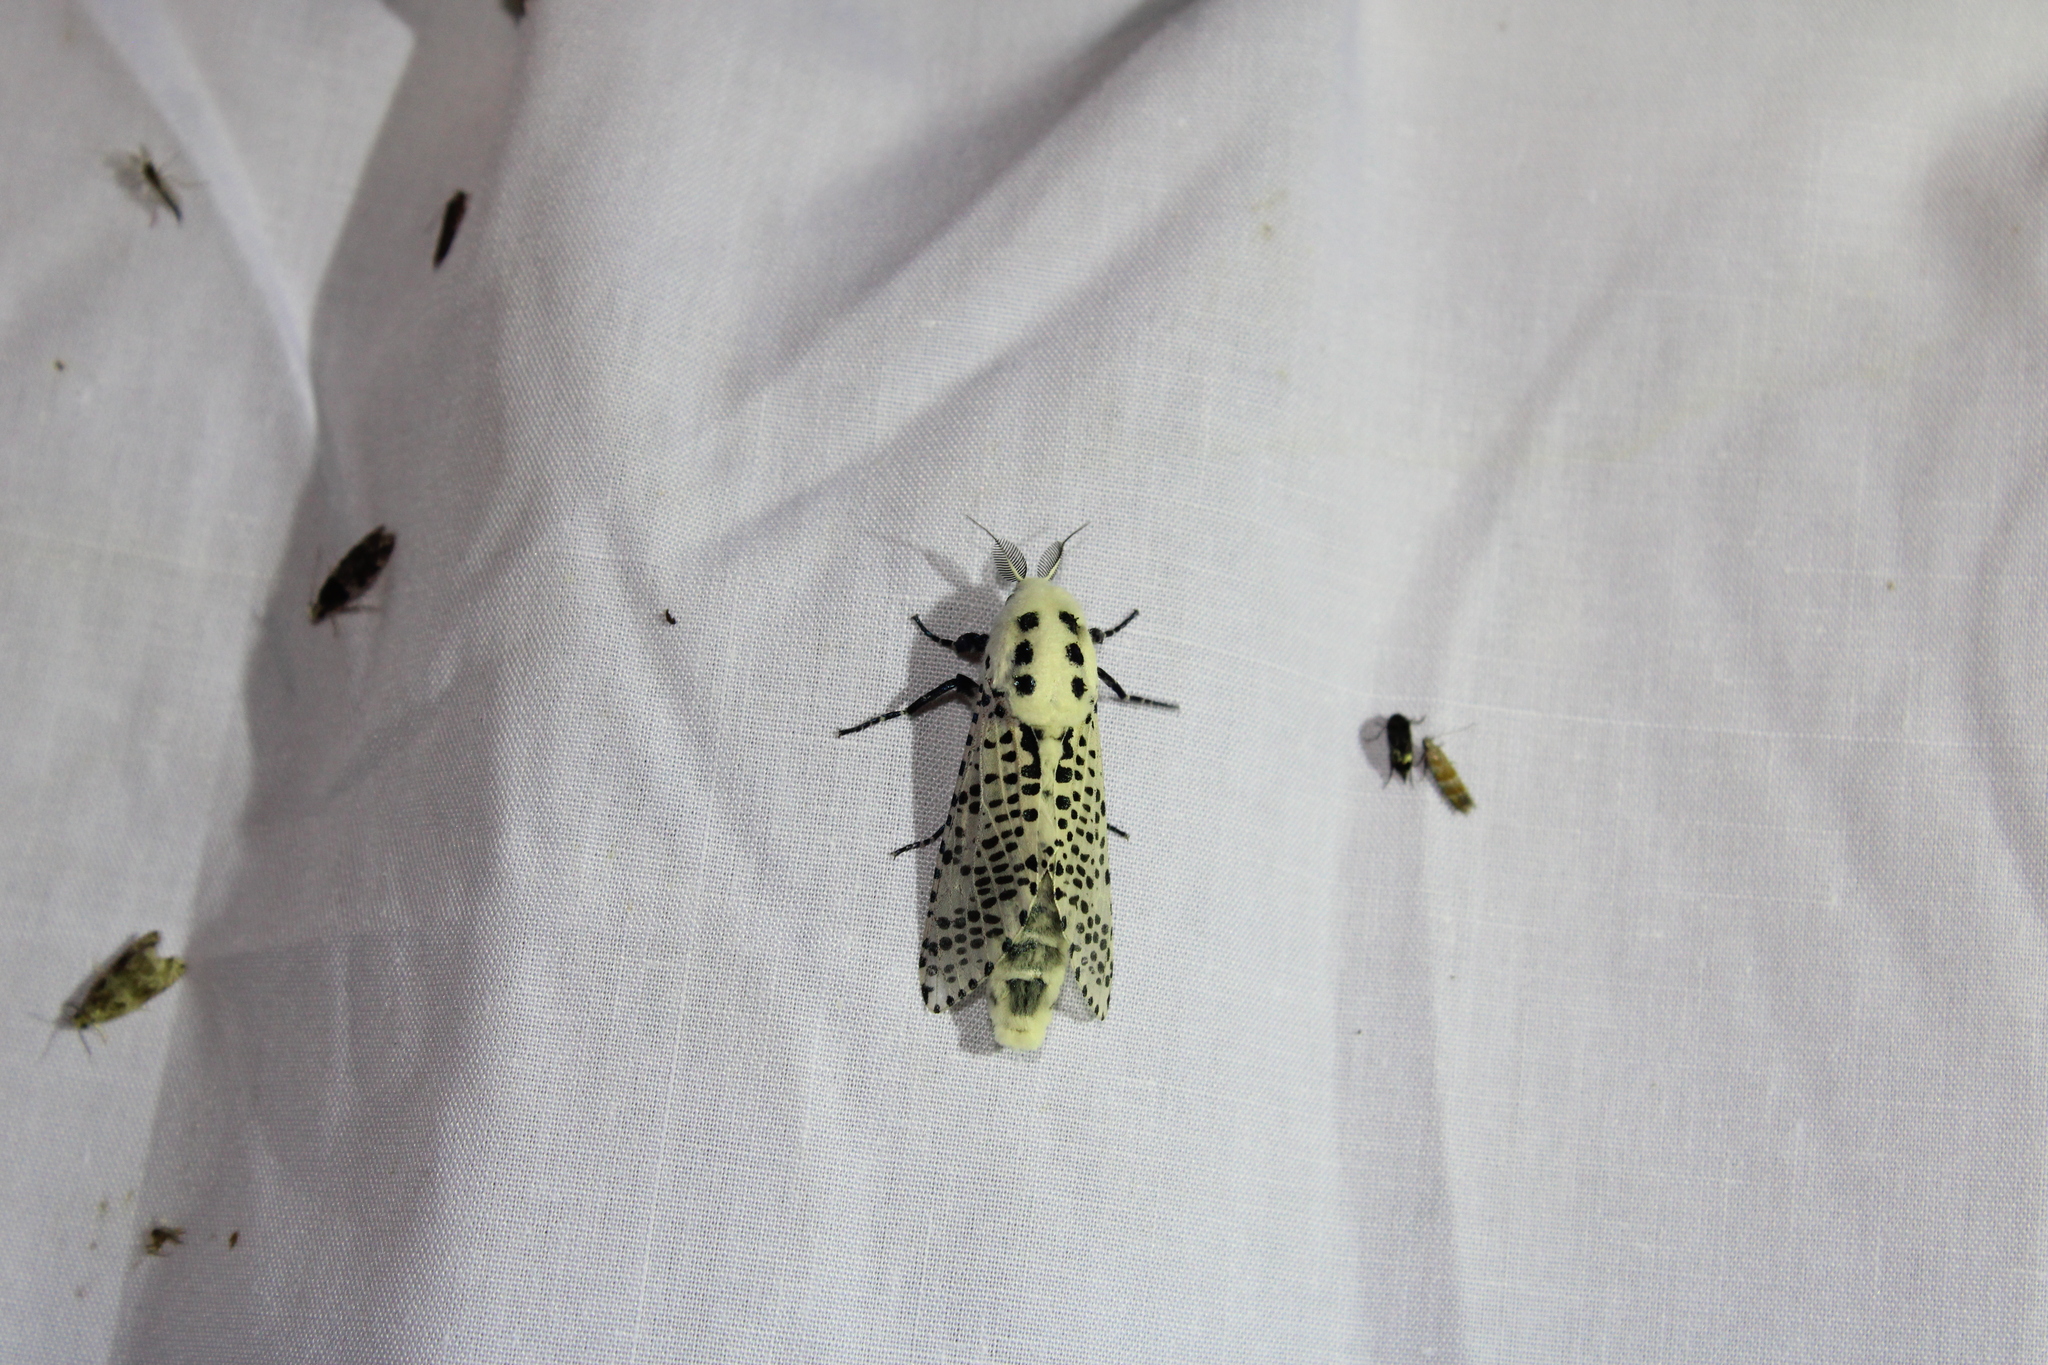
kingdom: Animalia
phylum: Arthropoda
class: Insecta
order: Lepidoptera
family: Cossidae
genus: Zeuzera
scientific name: Zeuzera pyrina
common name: Leopard moth
